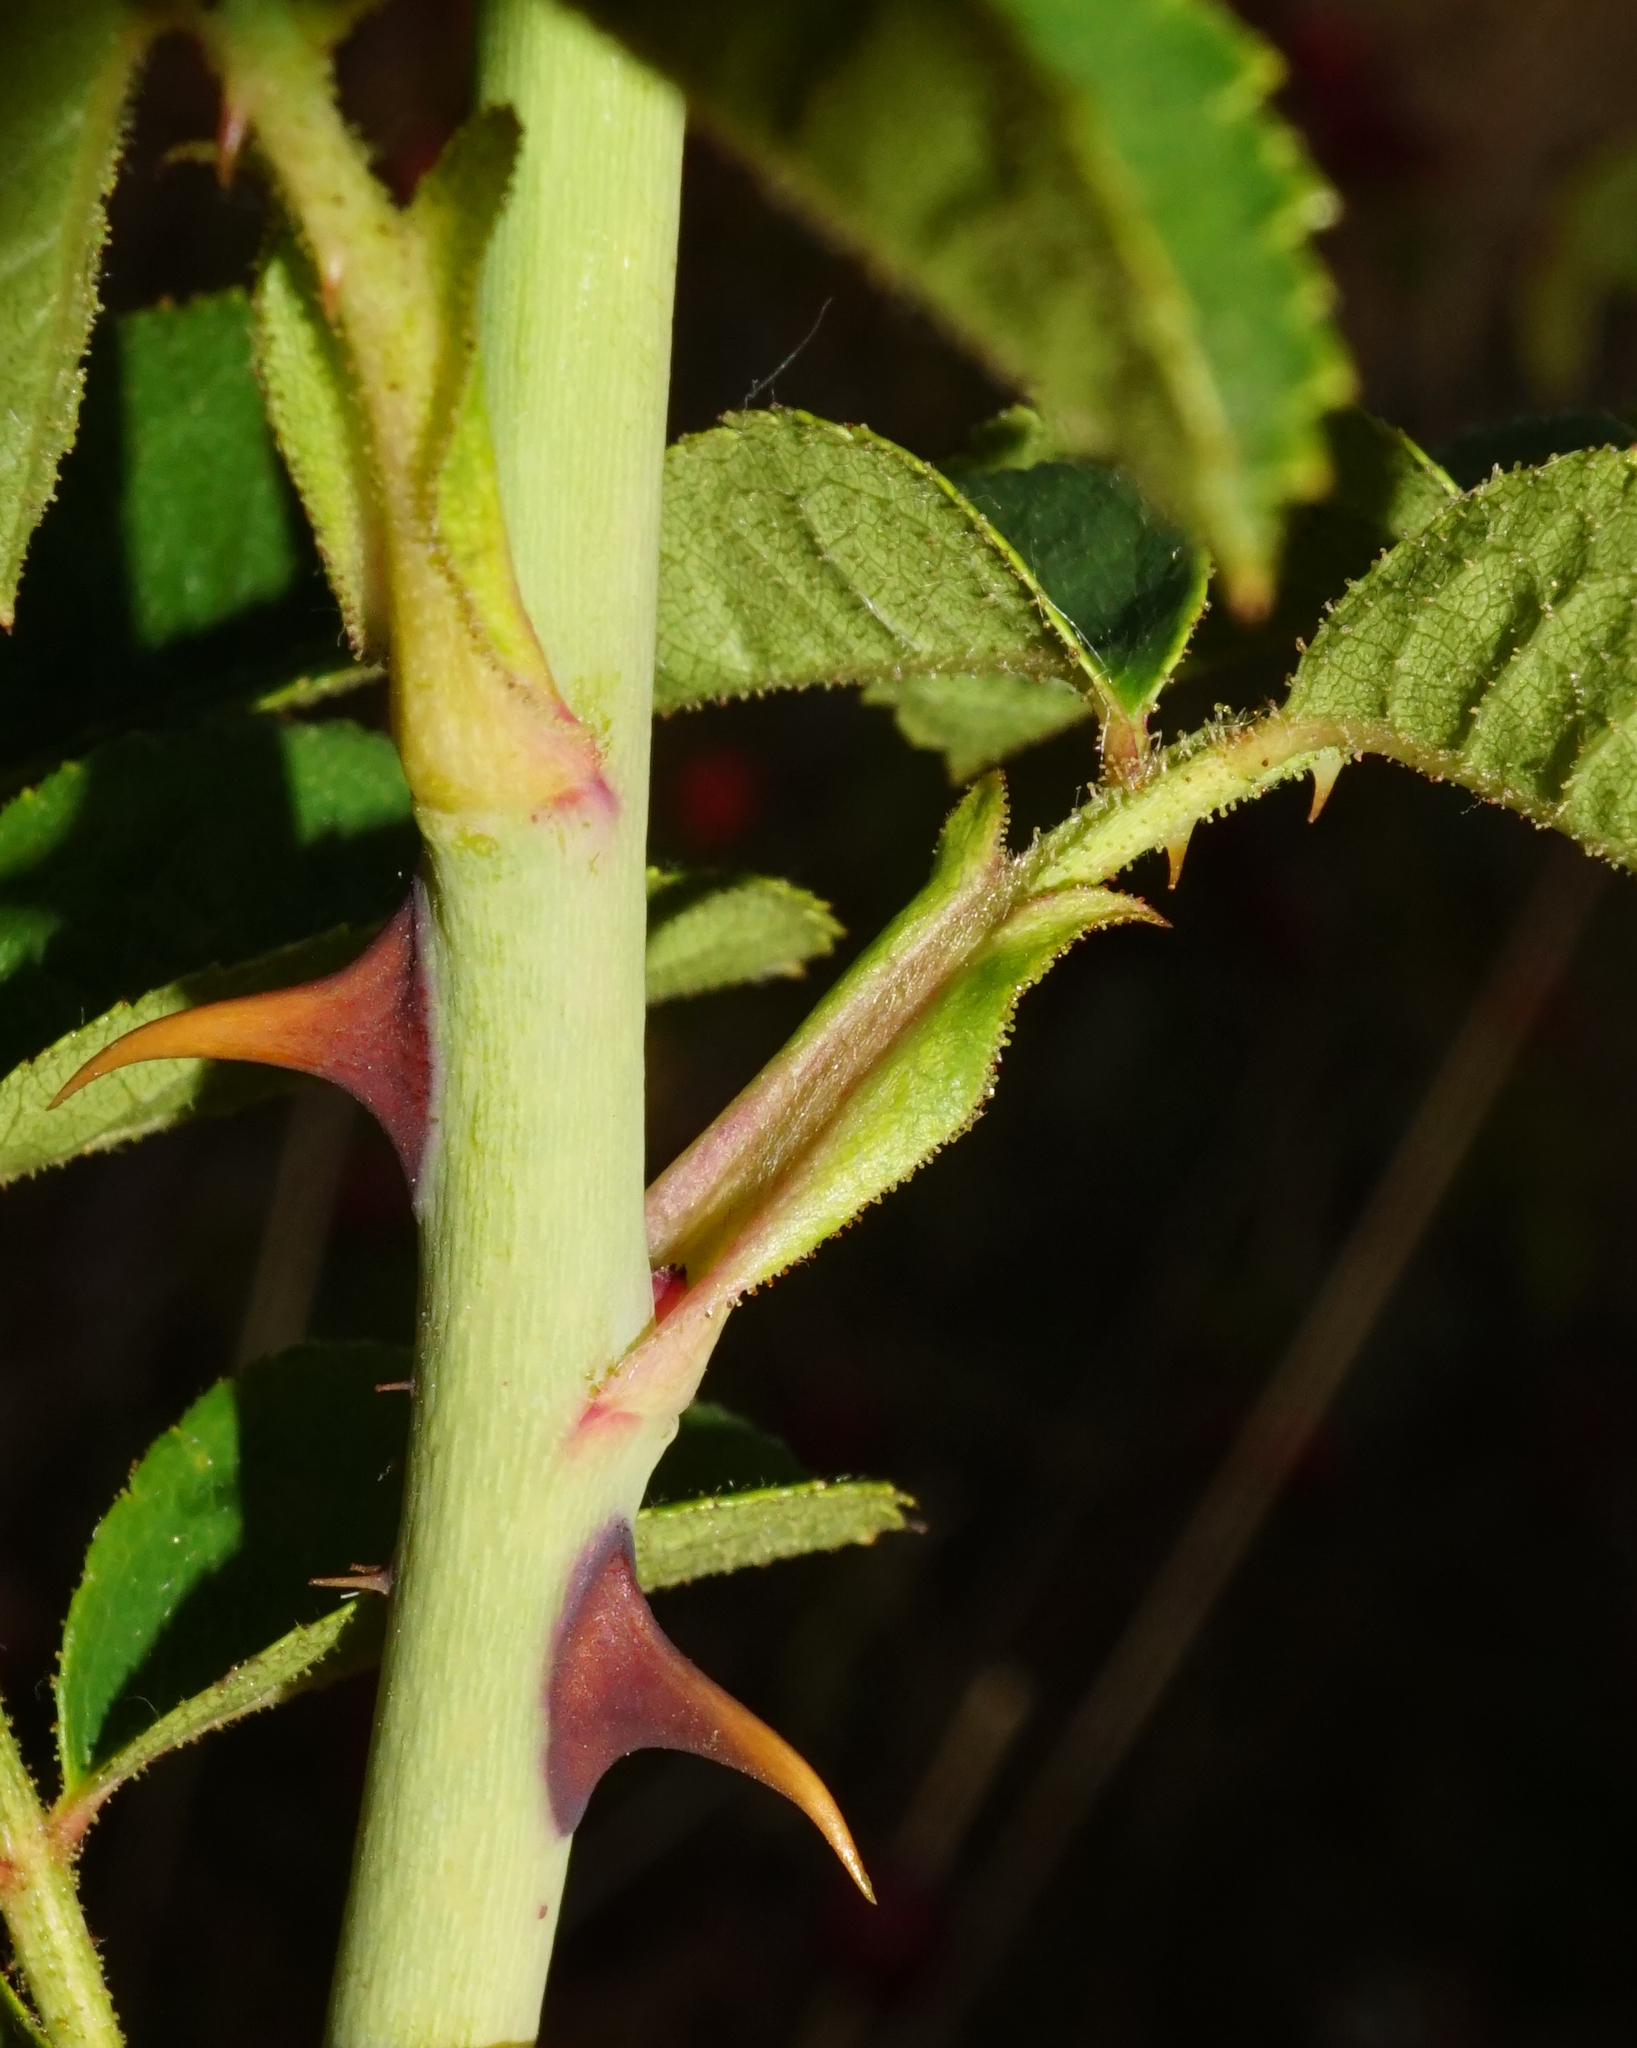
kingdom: Plantae
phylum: Tracheophyta
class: Magnoliopsida
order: Rosales
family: Rosaceae
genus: Rosa
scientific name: Rosa zalana
